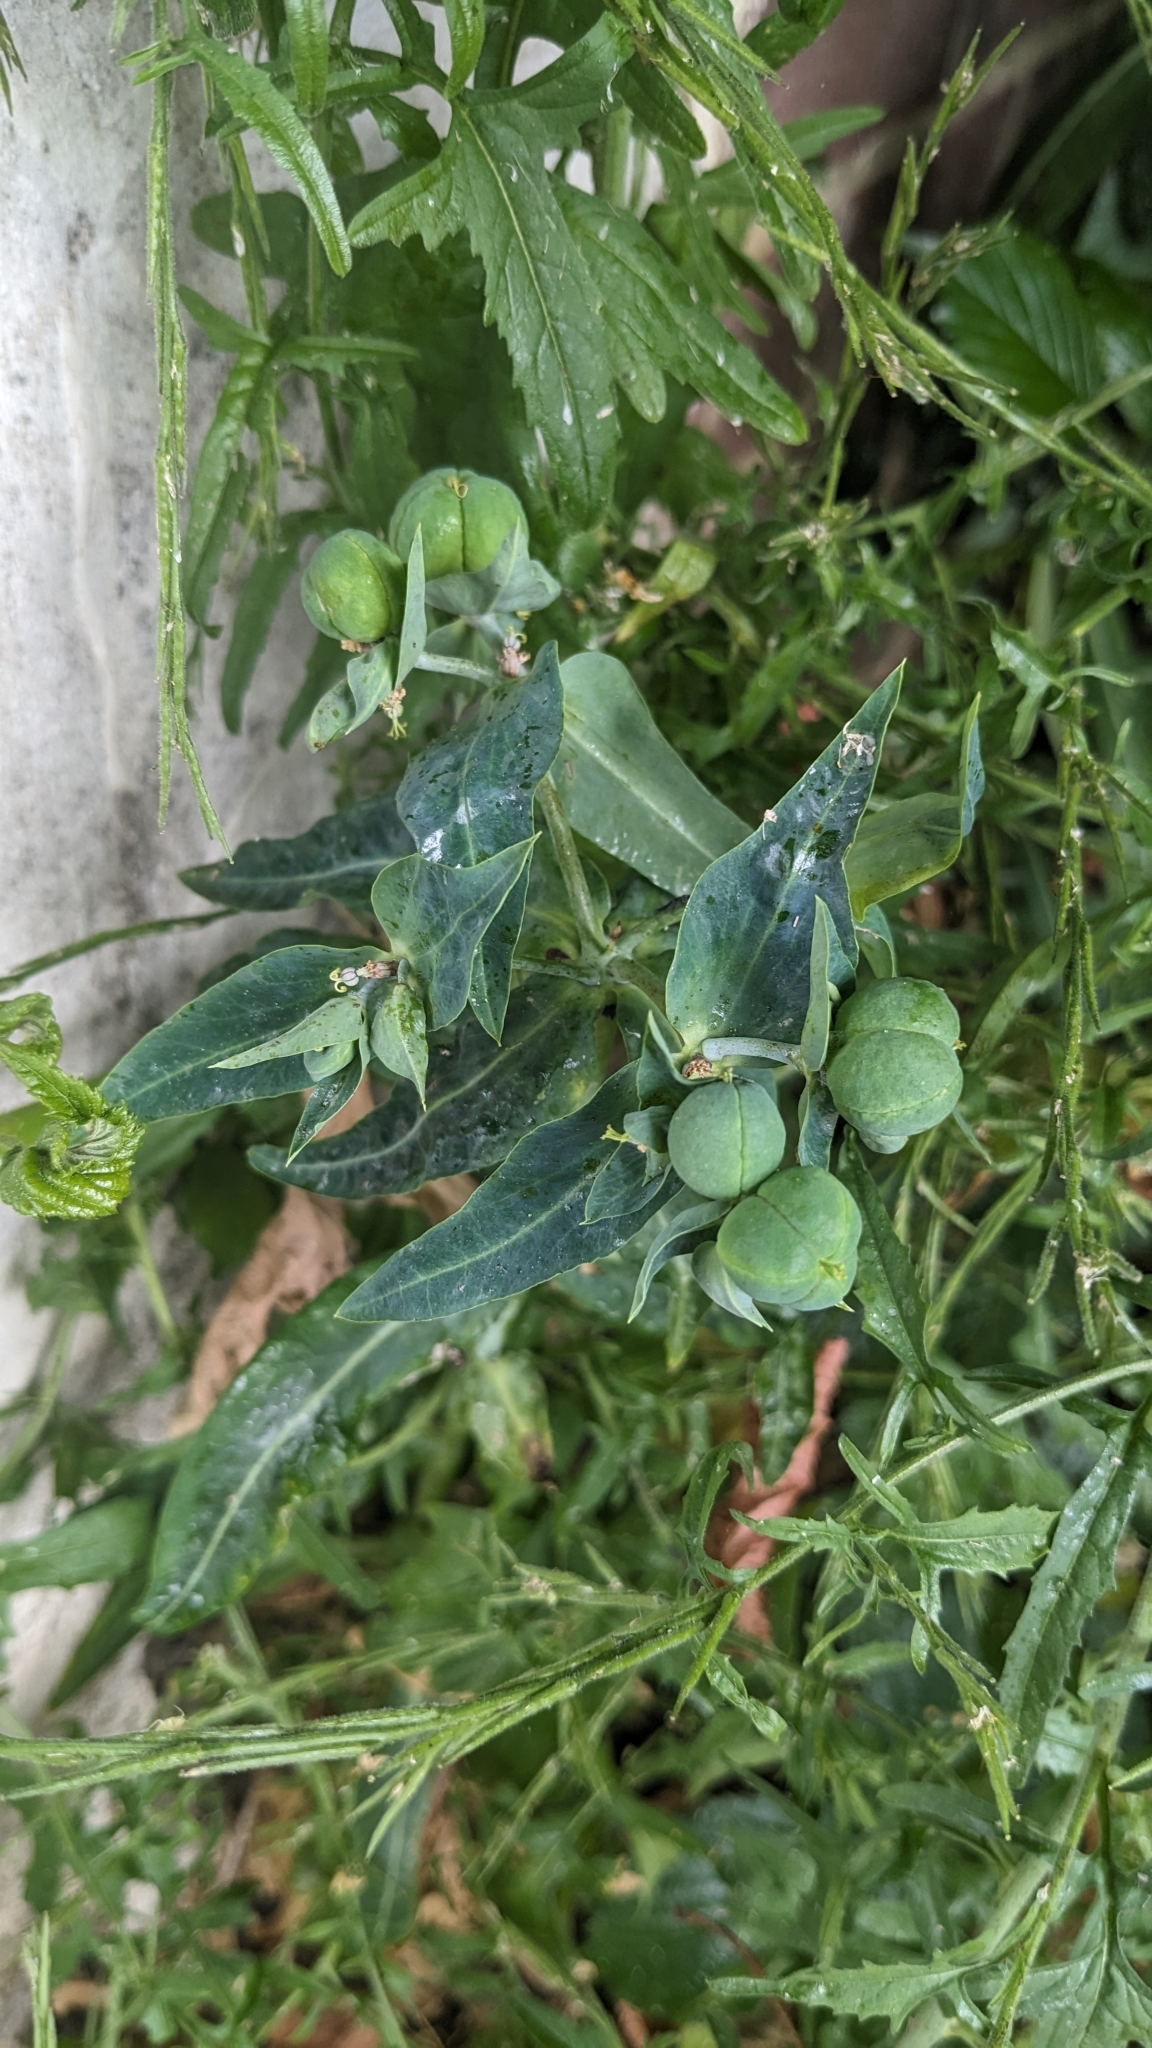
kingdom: Plantae
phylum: Tracheophyta
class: Magnoliopsida
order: Malpighiales
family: Euphorbiaceae
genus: Euphorbia
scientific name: Euphorbia lathyris
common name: Caper spurge
